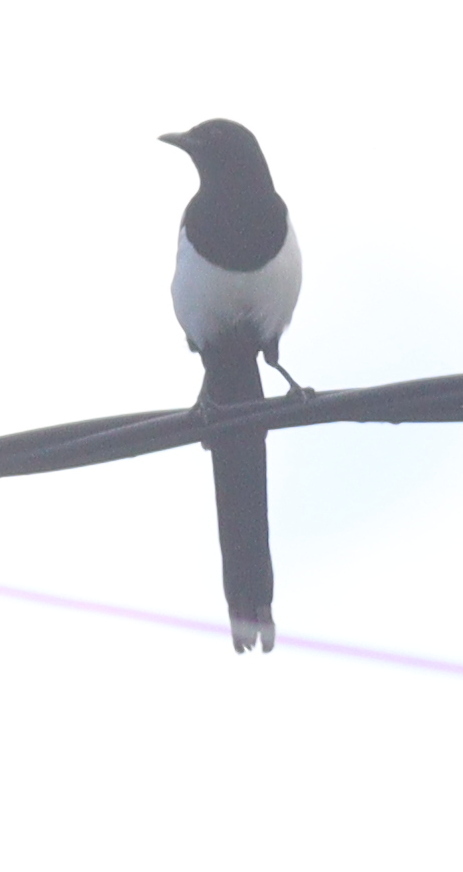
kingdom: Animalia
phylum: Chordata
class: Aves
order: Passeriformes
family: Corvidae
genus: Pica
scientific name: Pica pica
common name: Eurasian magpie
